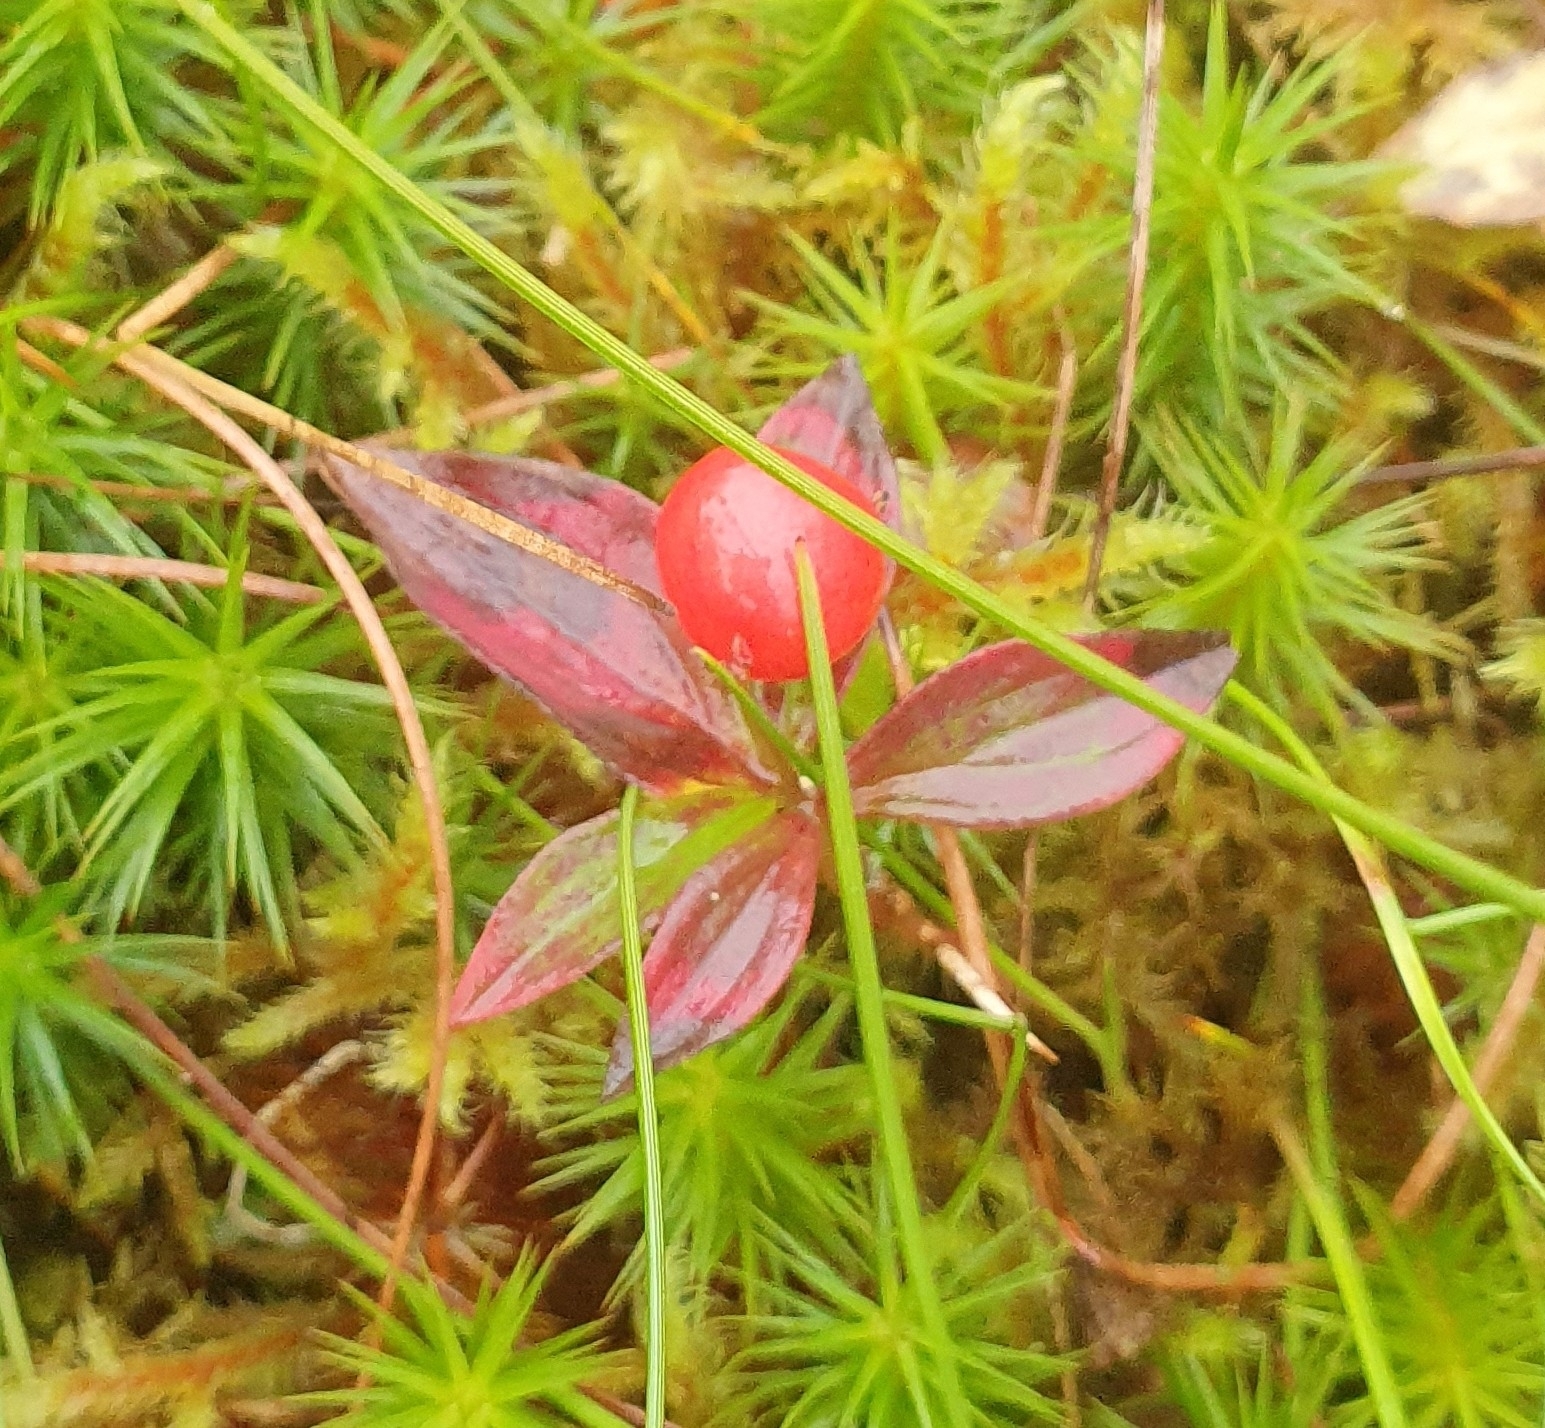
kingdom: Plantae
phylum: Tracheophyta
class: Magnoliopsida
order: Cornales
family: Cornaceae
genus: Cornus
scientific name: Cornus suecica
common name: Dwarf cornel
